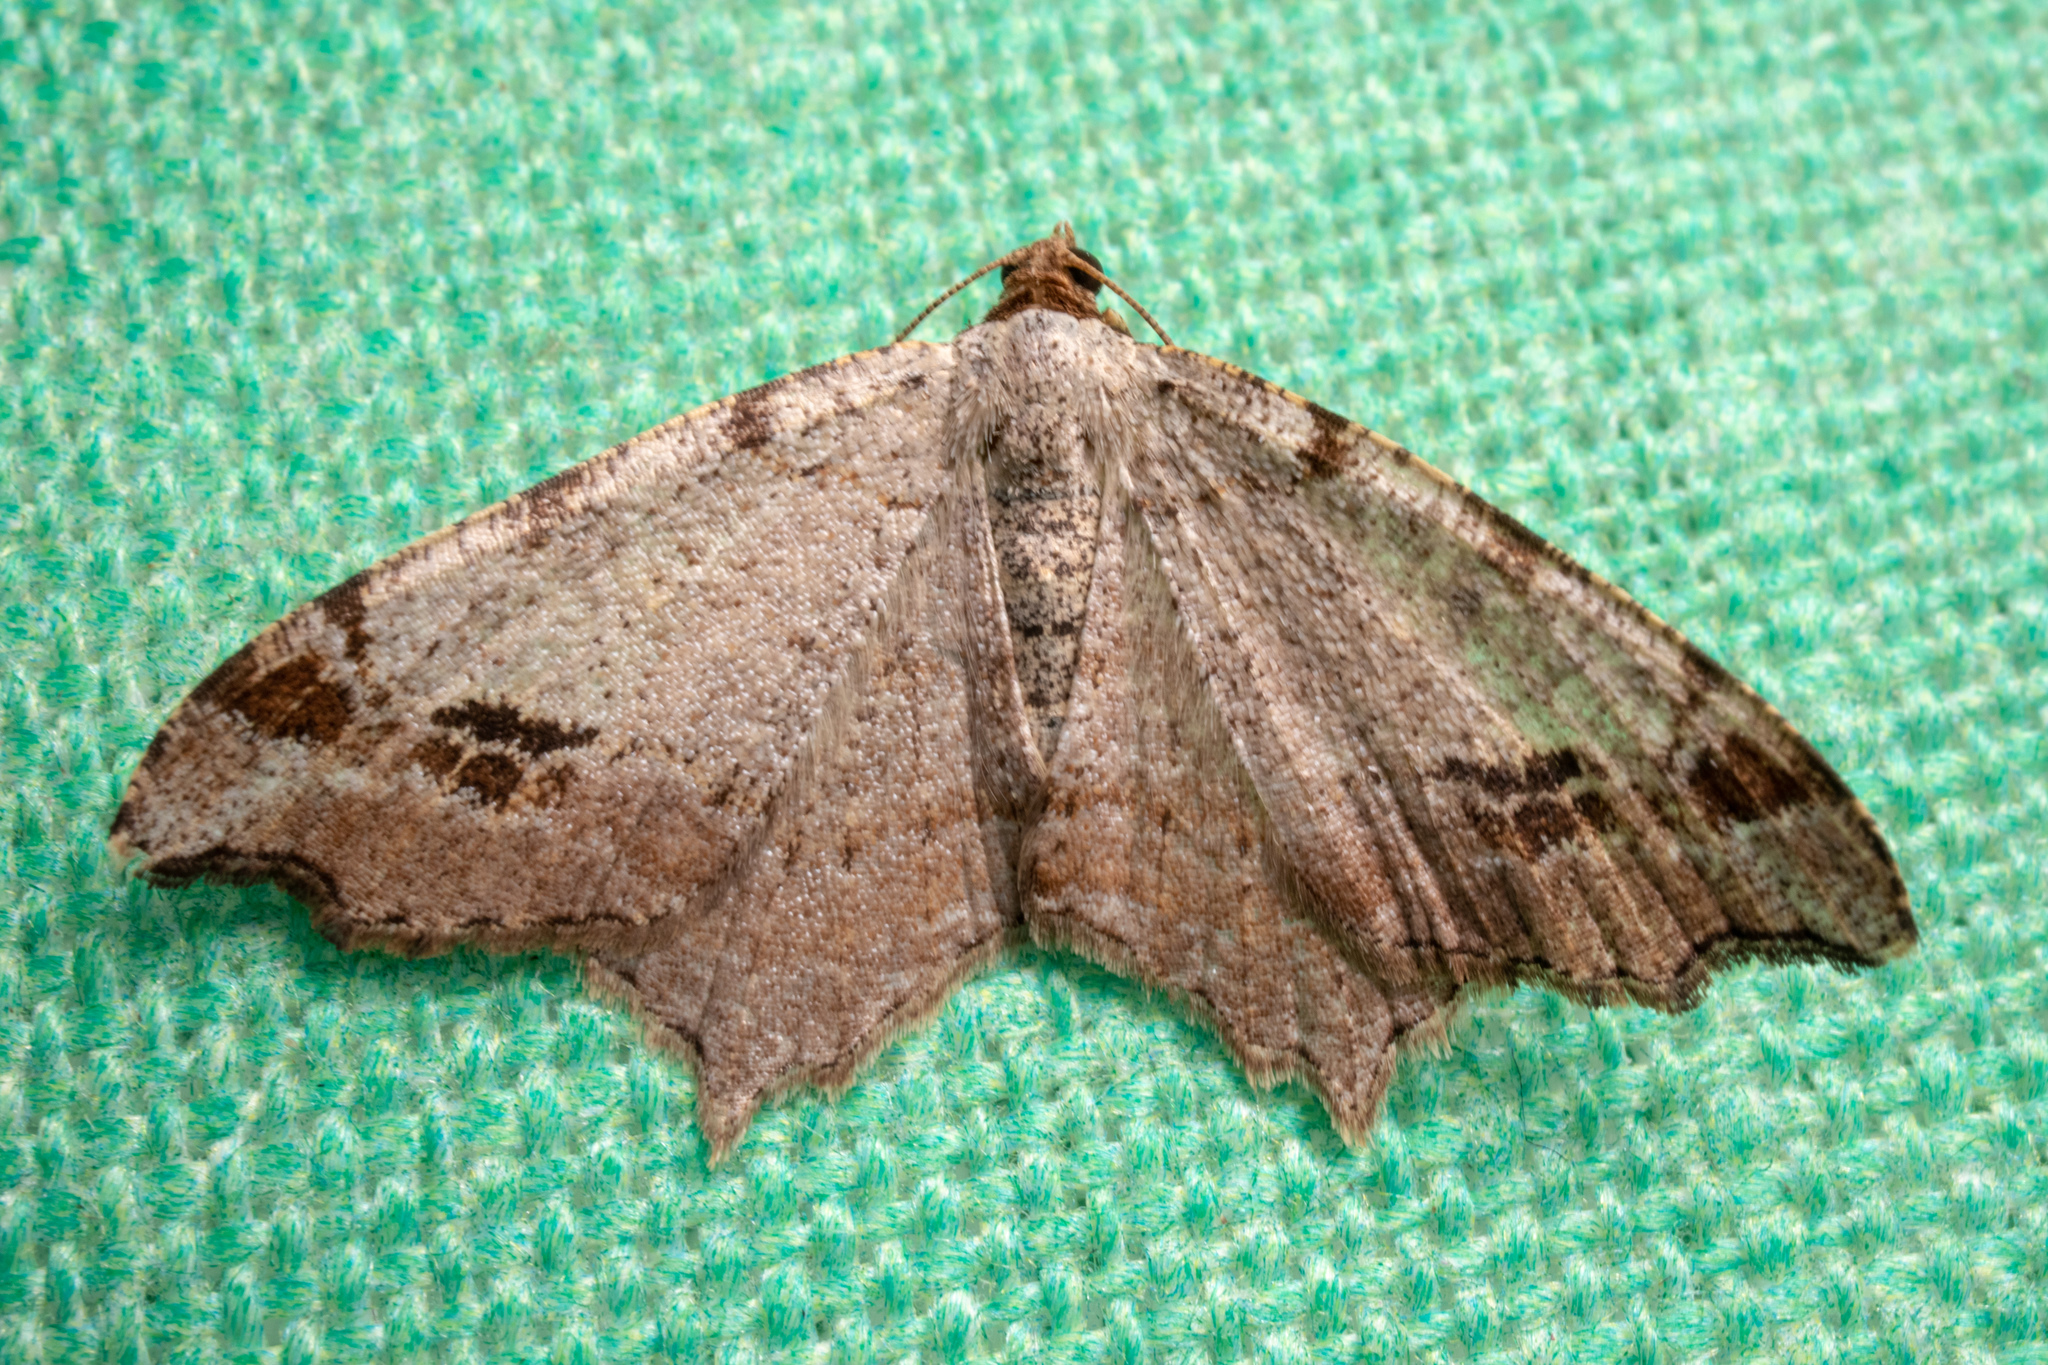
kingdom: Animalia
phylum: Arthropoda
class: Insecta
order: Lepidoptera
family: Geometridae
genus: Macaria
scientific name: Macaria aemulataria
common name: Common angle
